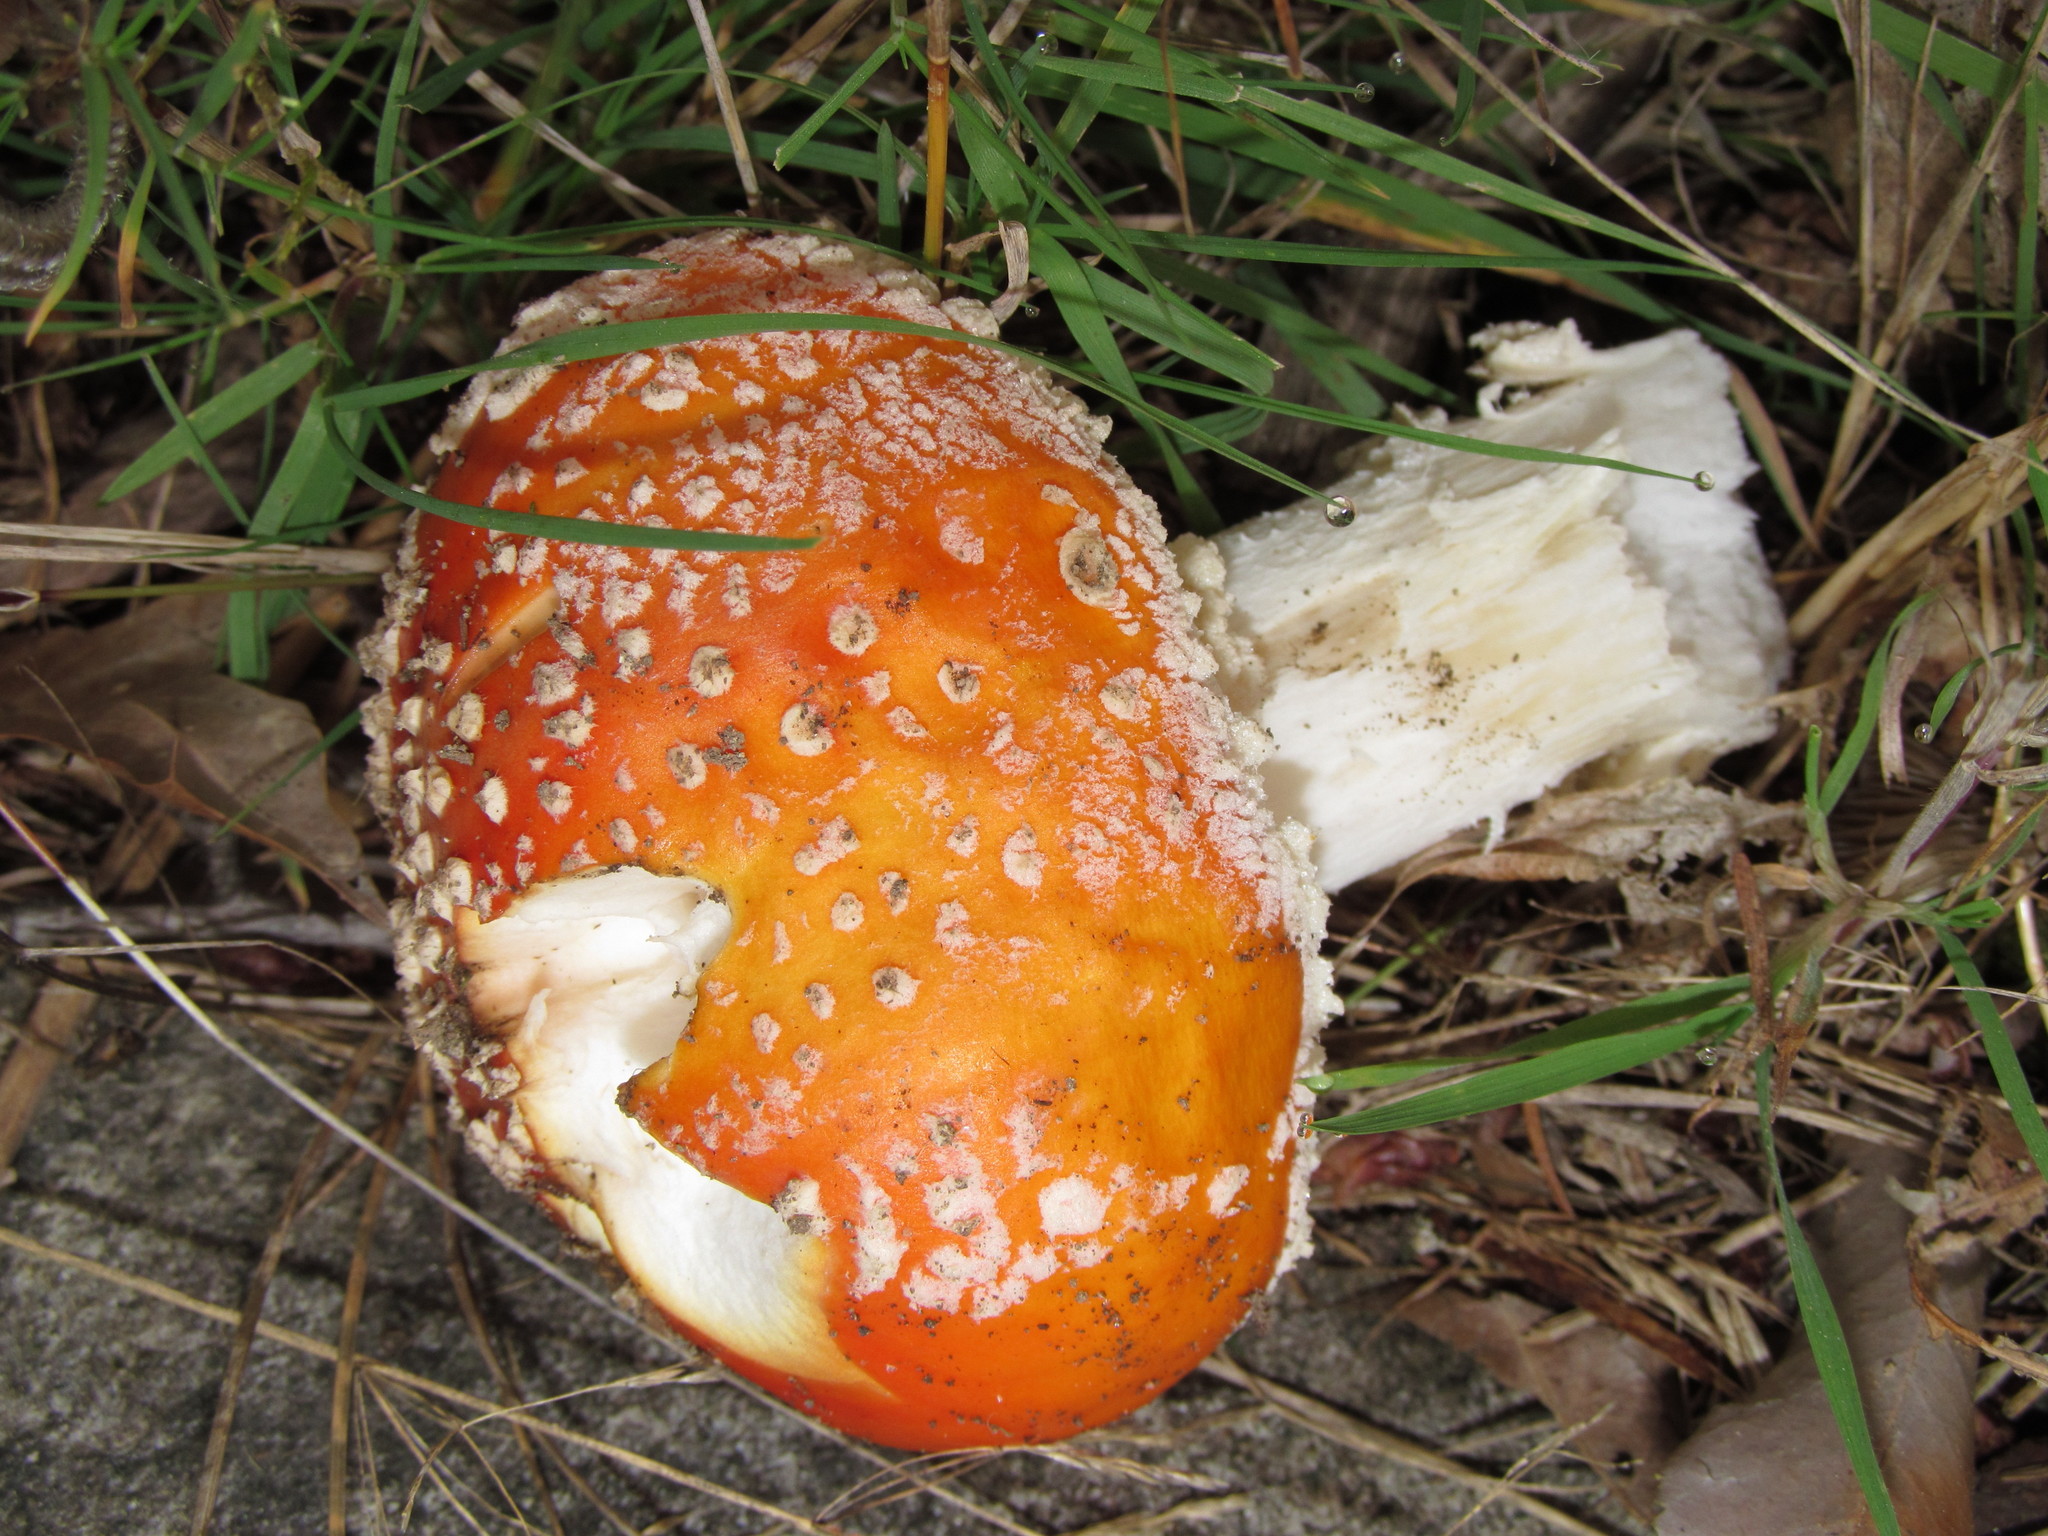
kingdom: Fungi
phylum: Basidiomycota
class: Agaricomycetes
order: Agaricales
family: Amanitaceae
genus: Amanita
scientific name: Amanita muscaria
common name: Fly agaric
